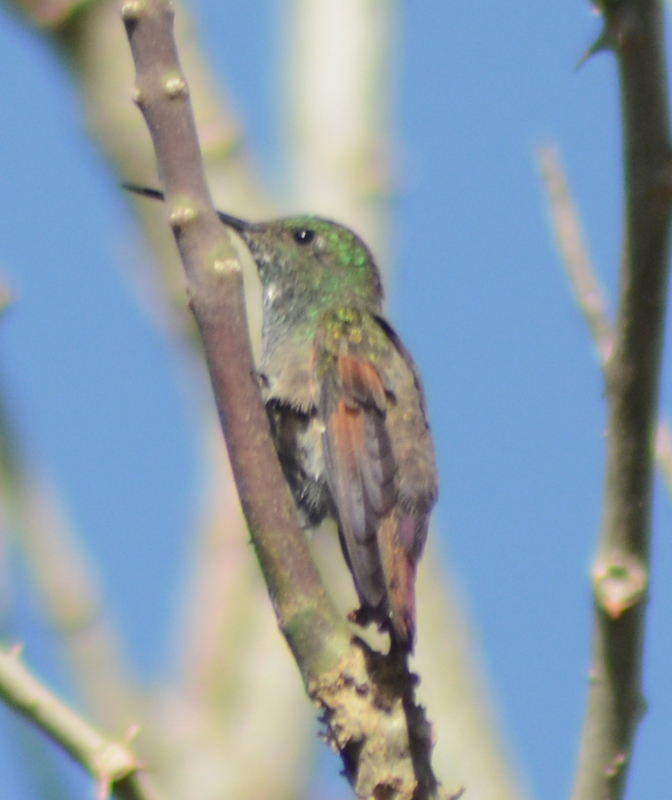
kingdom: Animalia
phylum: Chordata
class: Aves
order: Apodiformes
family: Trochilidae
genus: Saucerottia
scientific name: Saucerottia beryllina
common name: Berylline hummingbird
